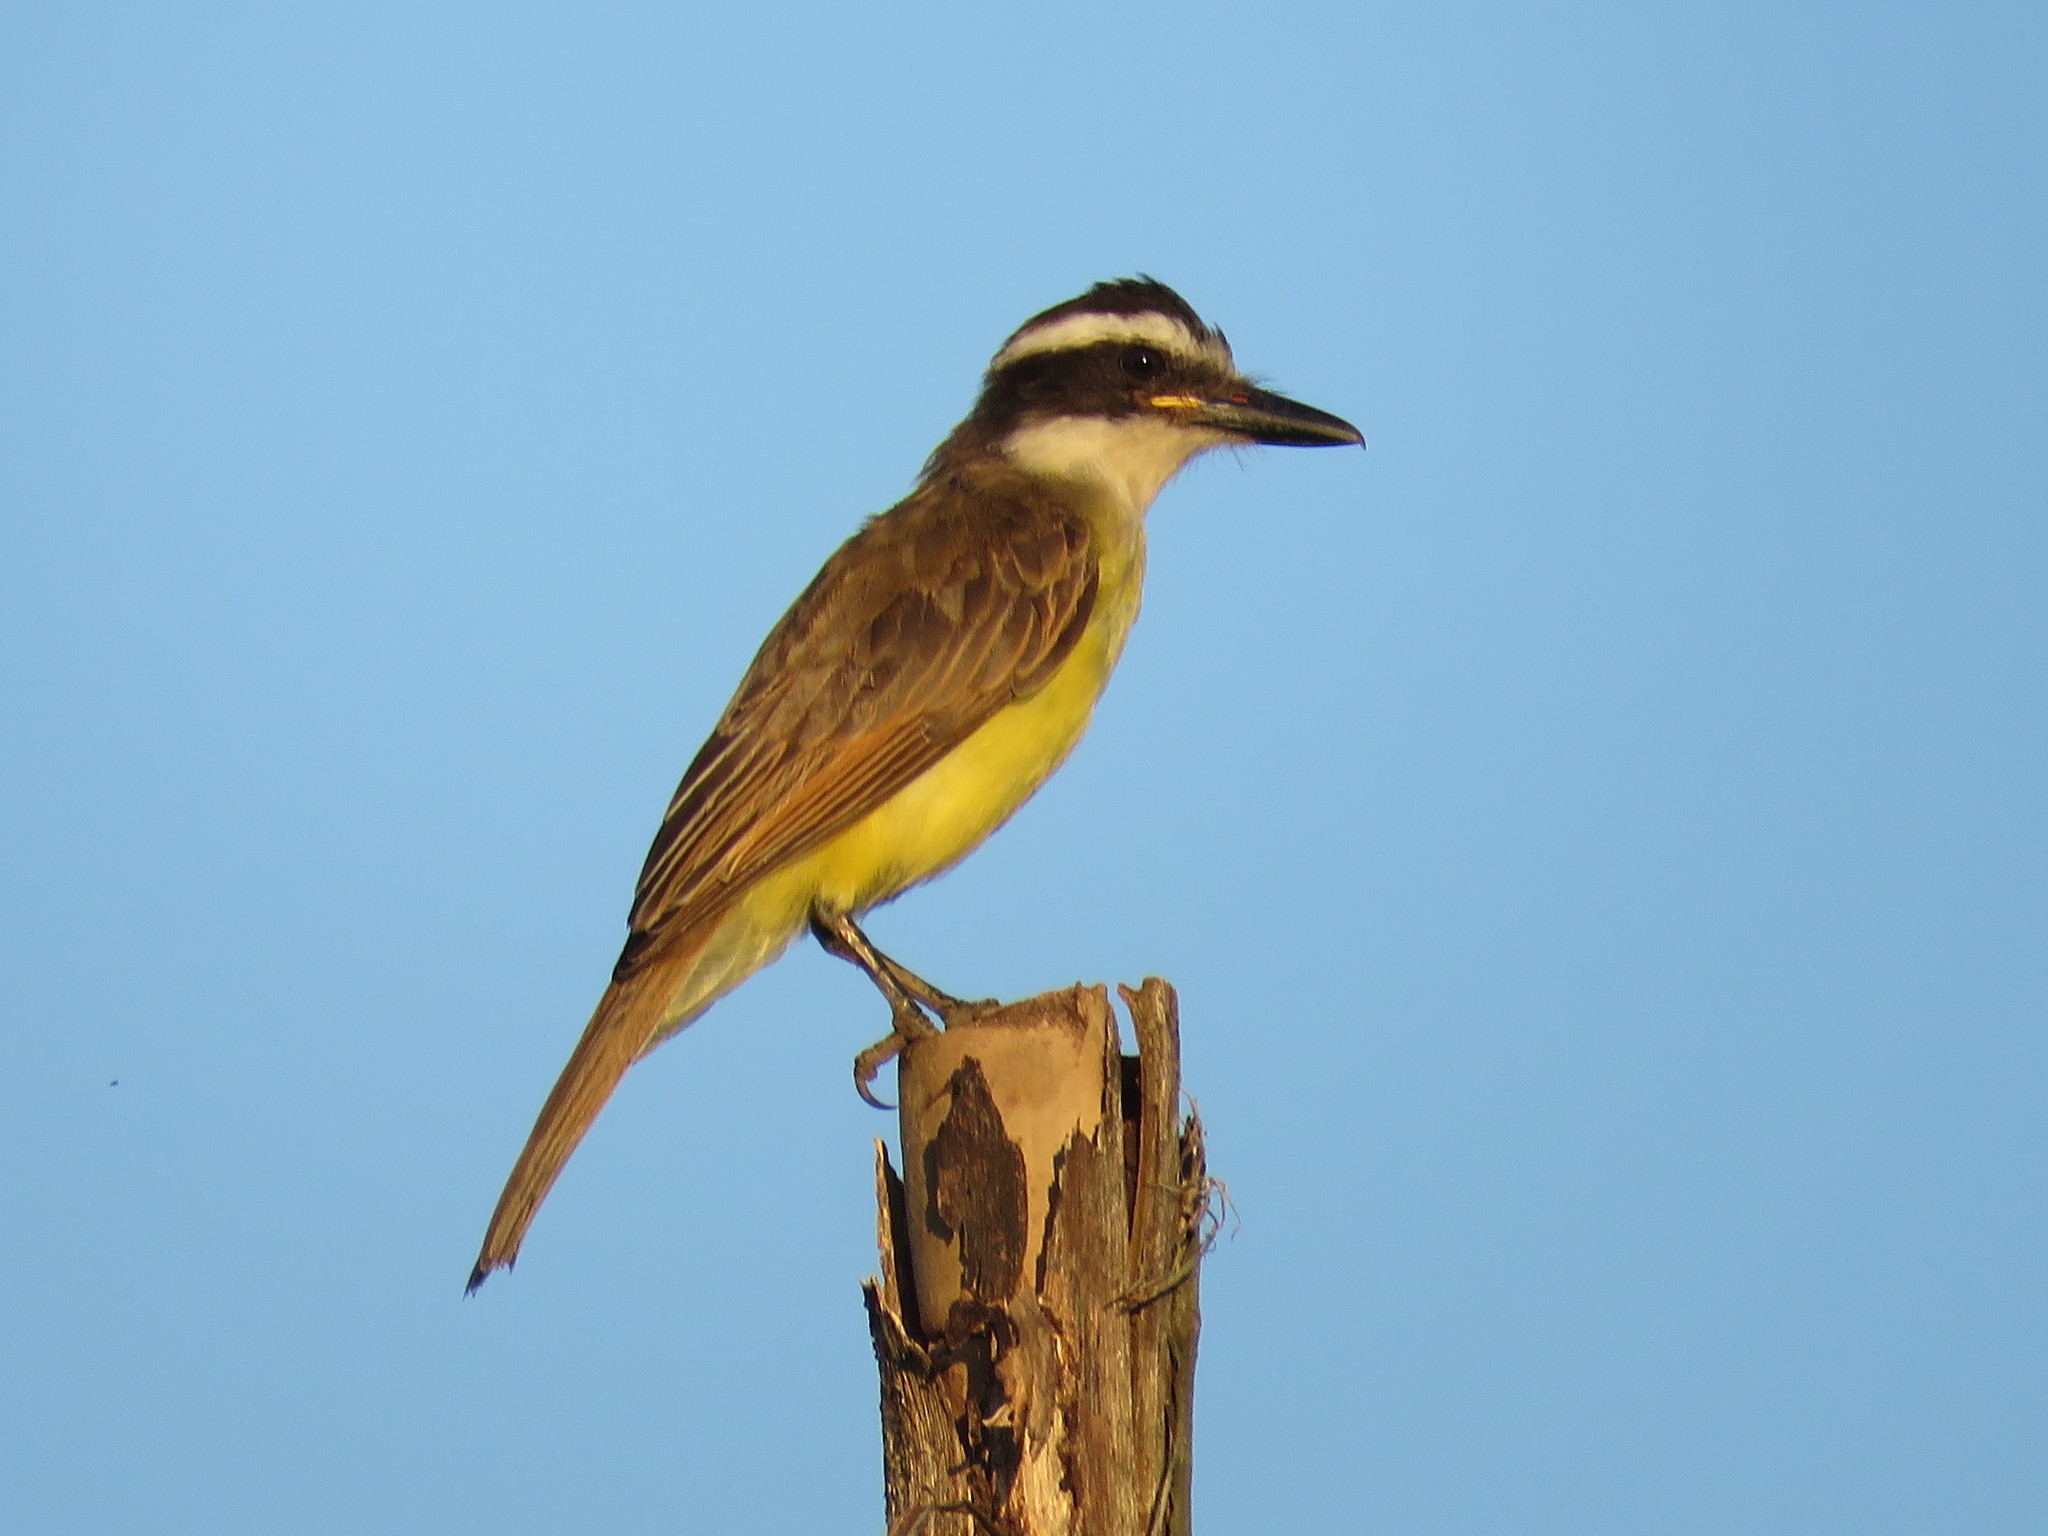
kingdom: Animalia
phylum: Chordata
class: Aves
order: Passeriformes
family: Tyrannidae
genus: Pitangus
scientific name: Pitangus sulphuratus
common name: Great kiskadee
